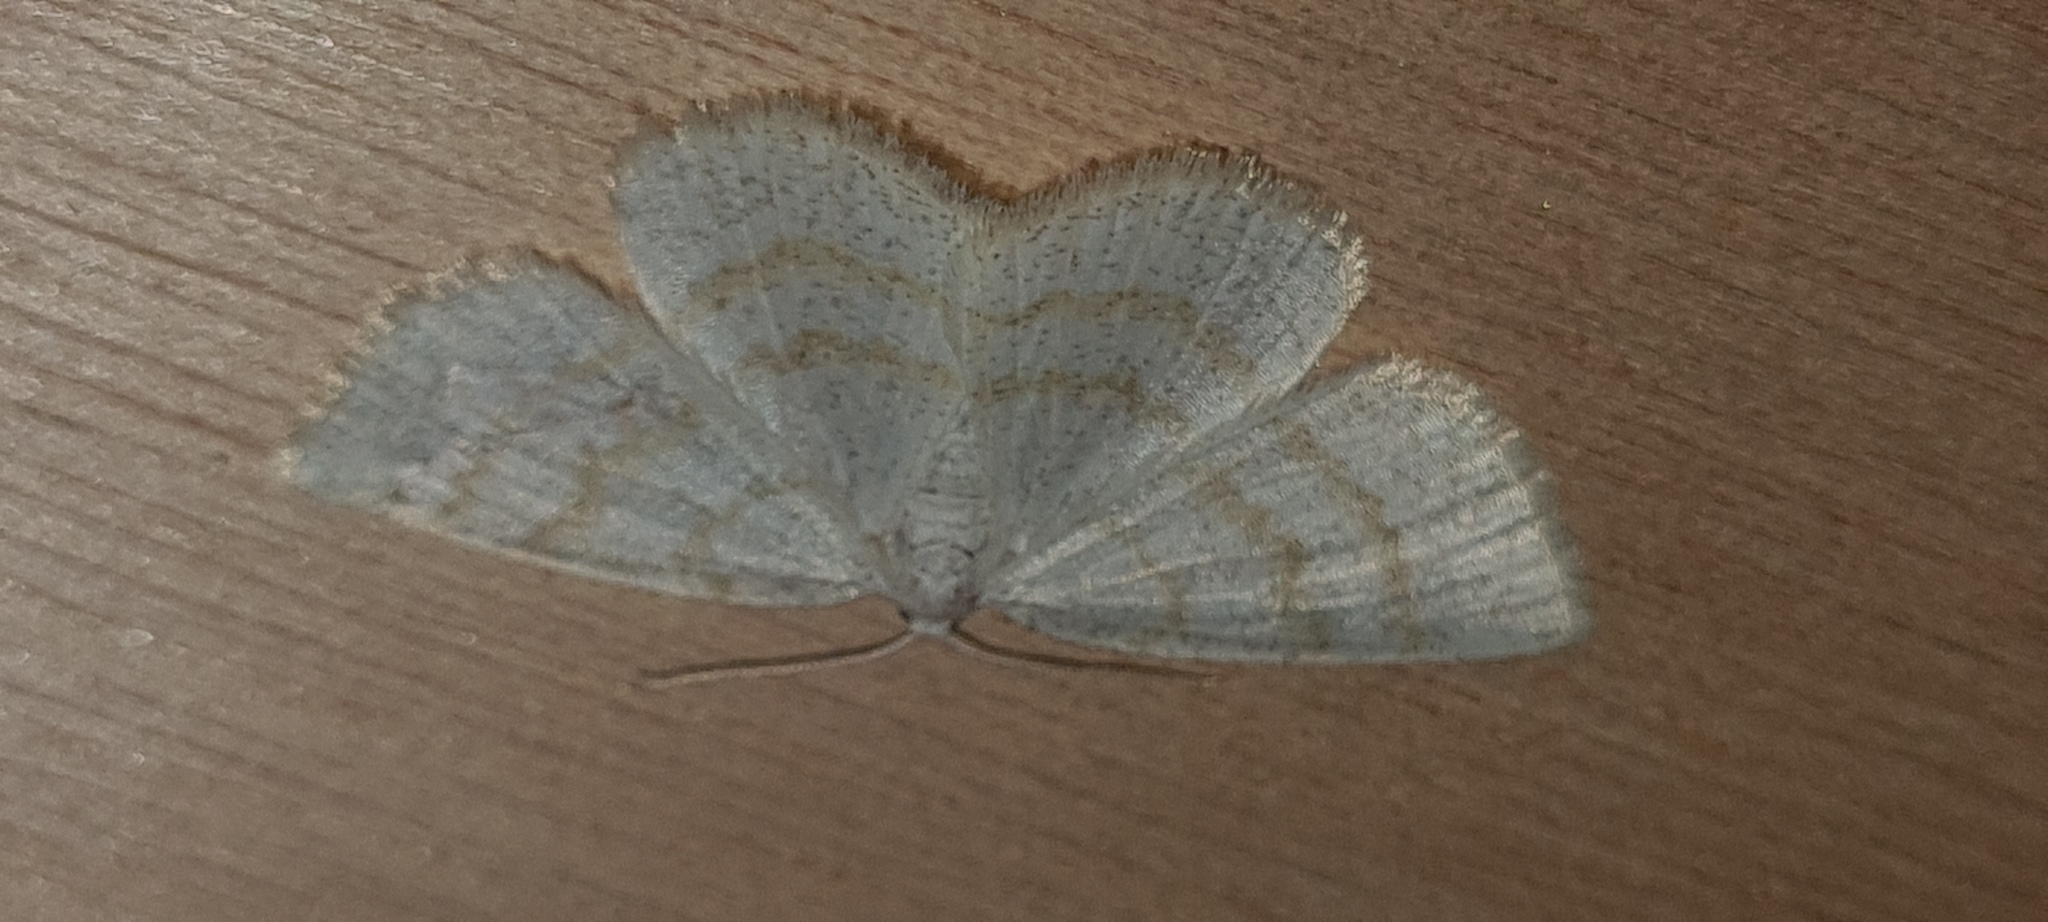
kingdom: Animalia
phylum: Arthropoda
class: Insecta
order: Lepidoptera
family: Geometridae
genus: Cabera
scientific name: Cabera exanthemata
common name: Common wave
